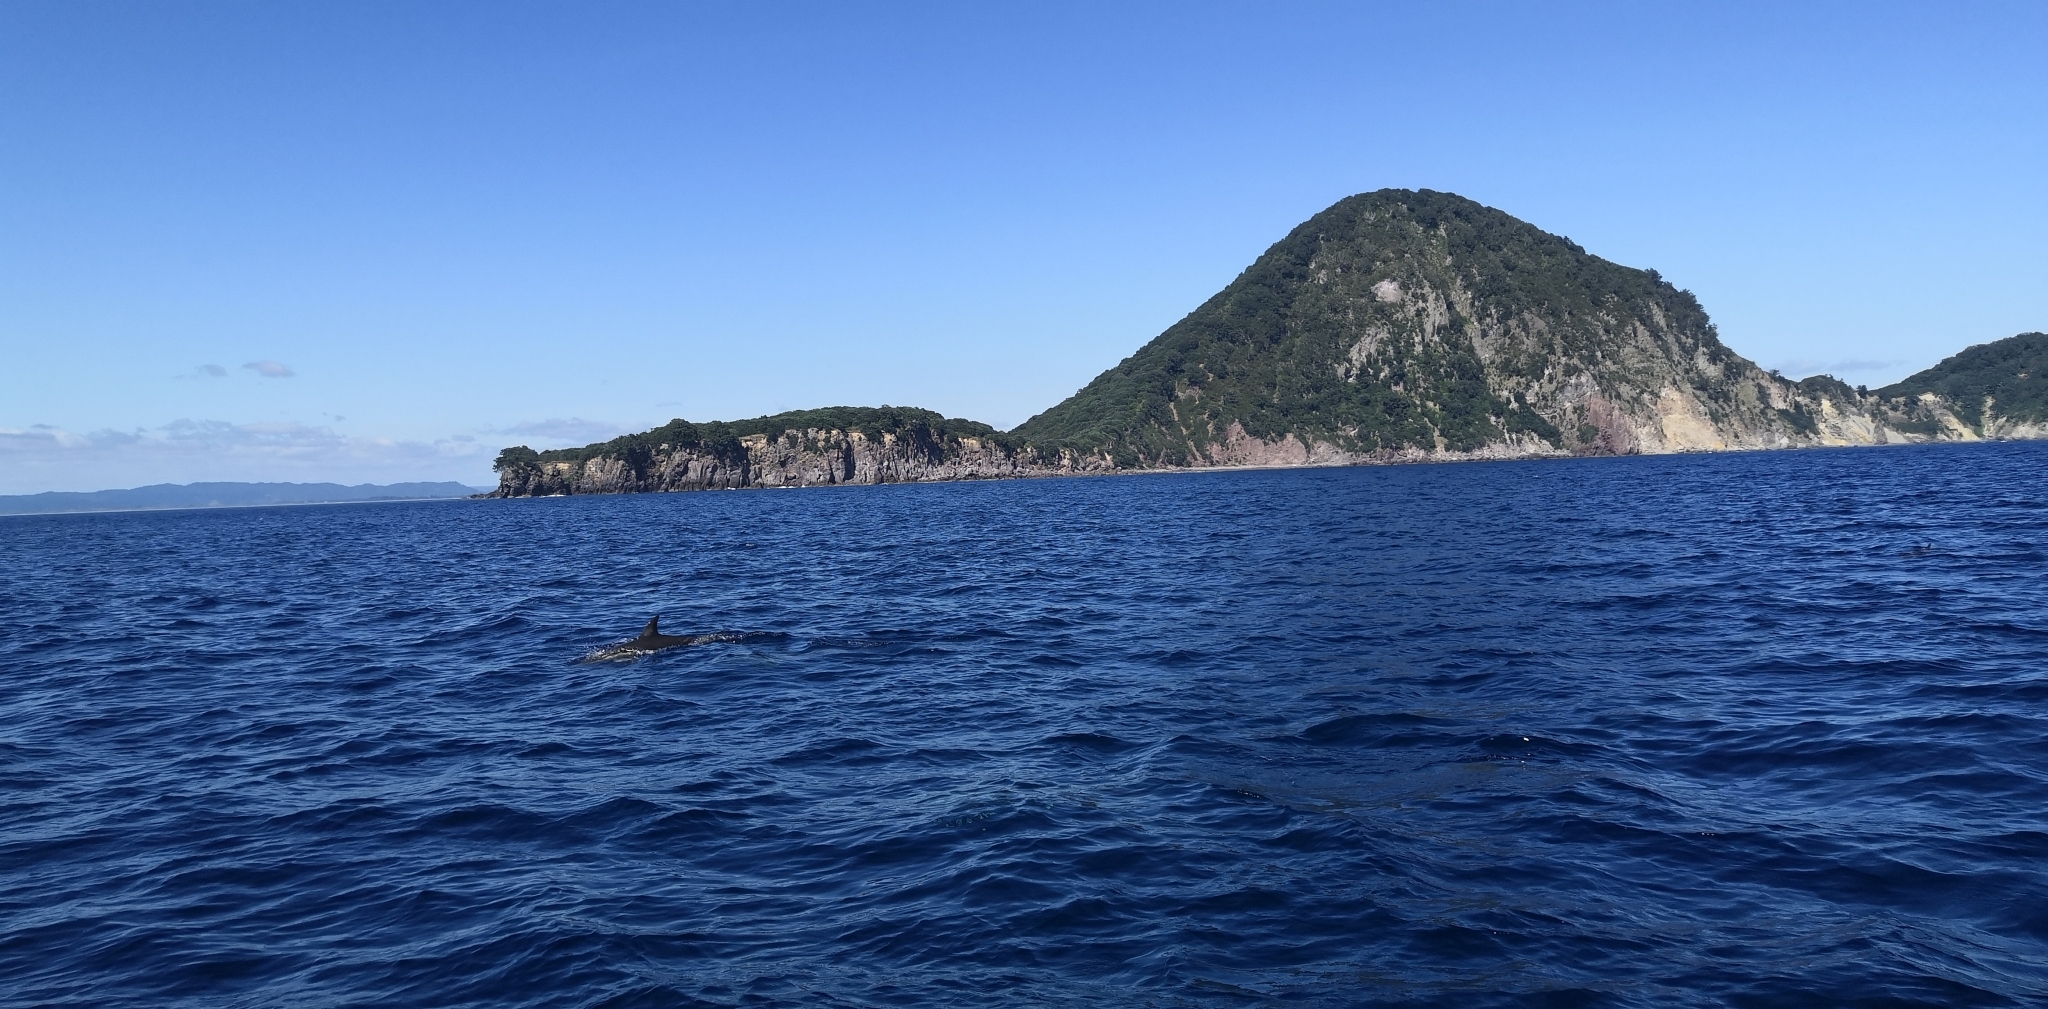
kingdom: Animalia
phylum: Chordata
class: Mammalia
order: Cetacea
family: Delphinidae
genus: Delphinus
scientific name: Delphinus delphis
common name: Common dolphin
